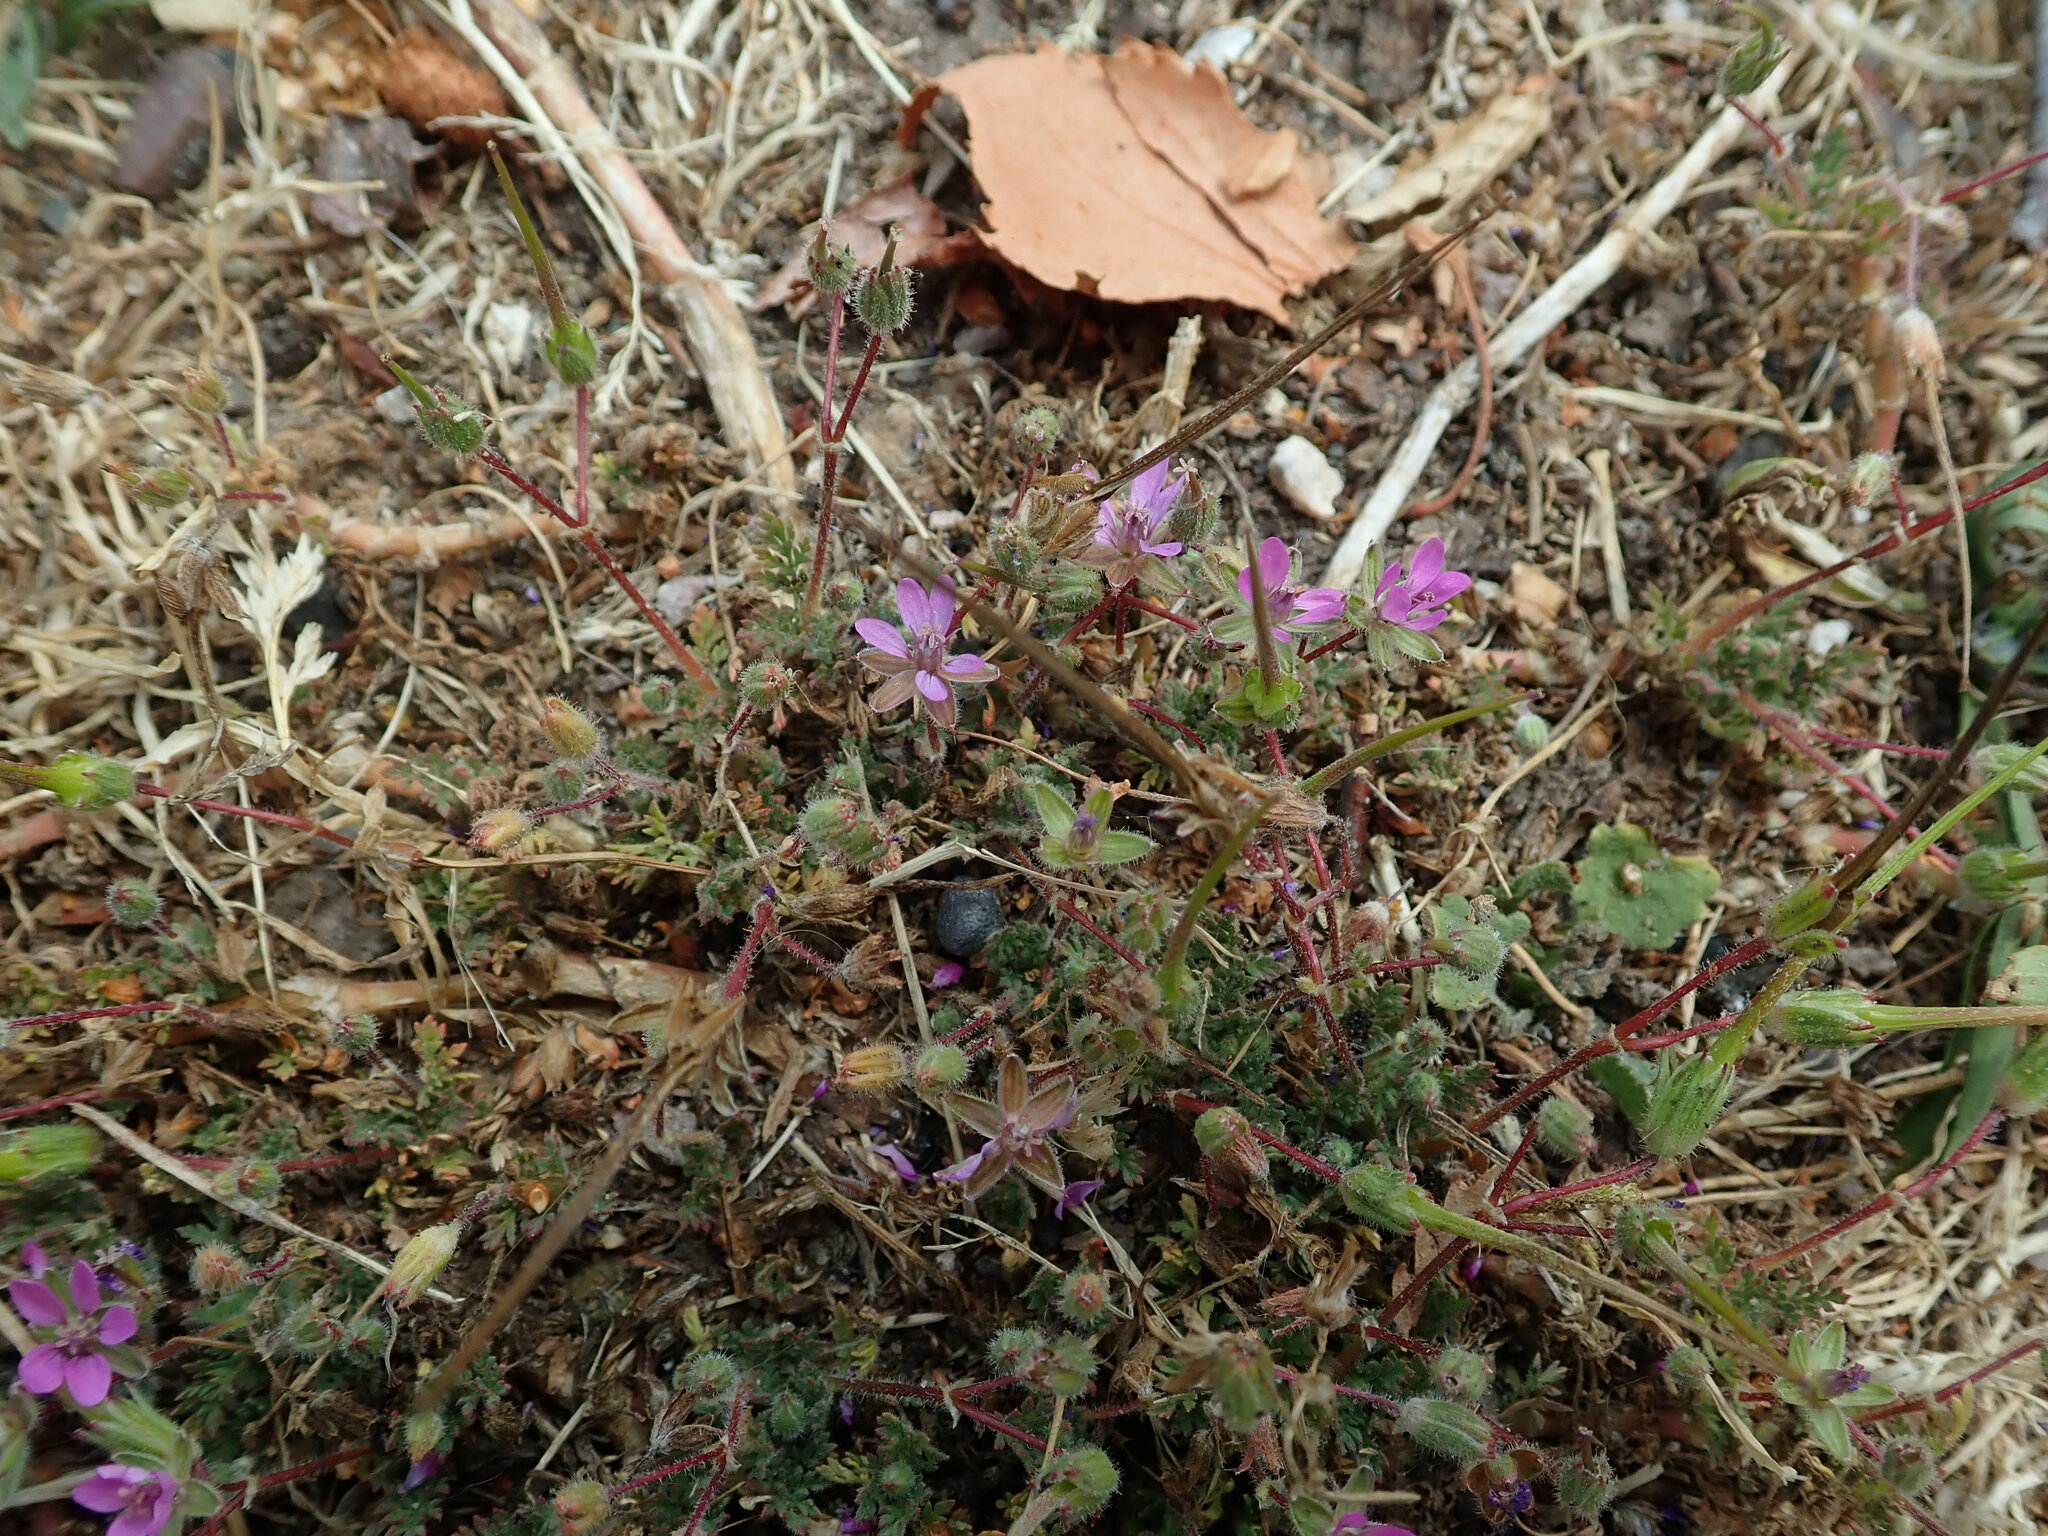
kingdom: Plantae
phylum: Tracheophyta
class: Magnoliopsida
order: Geraniales
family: Geraniaceae
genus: Erodium
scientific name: Erodium cicutarium
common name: Common stork's-bill
